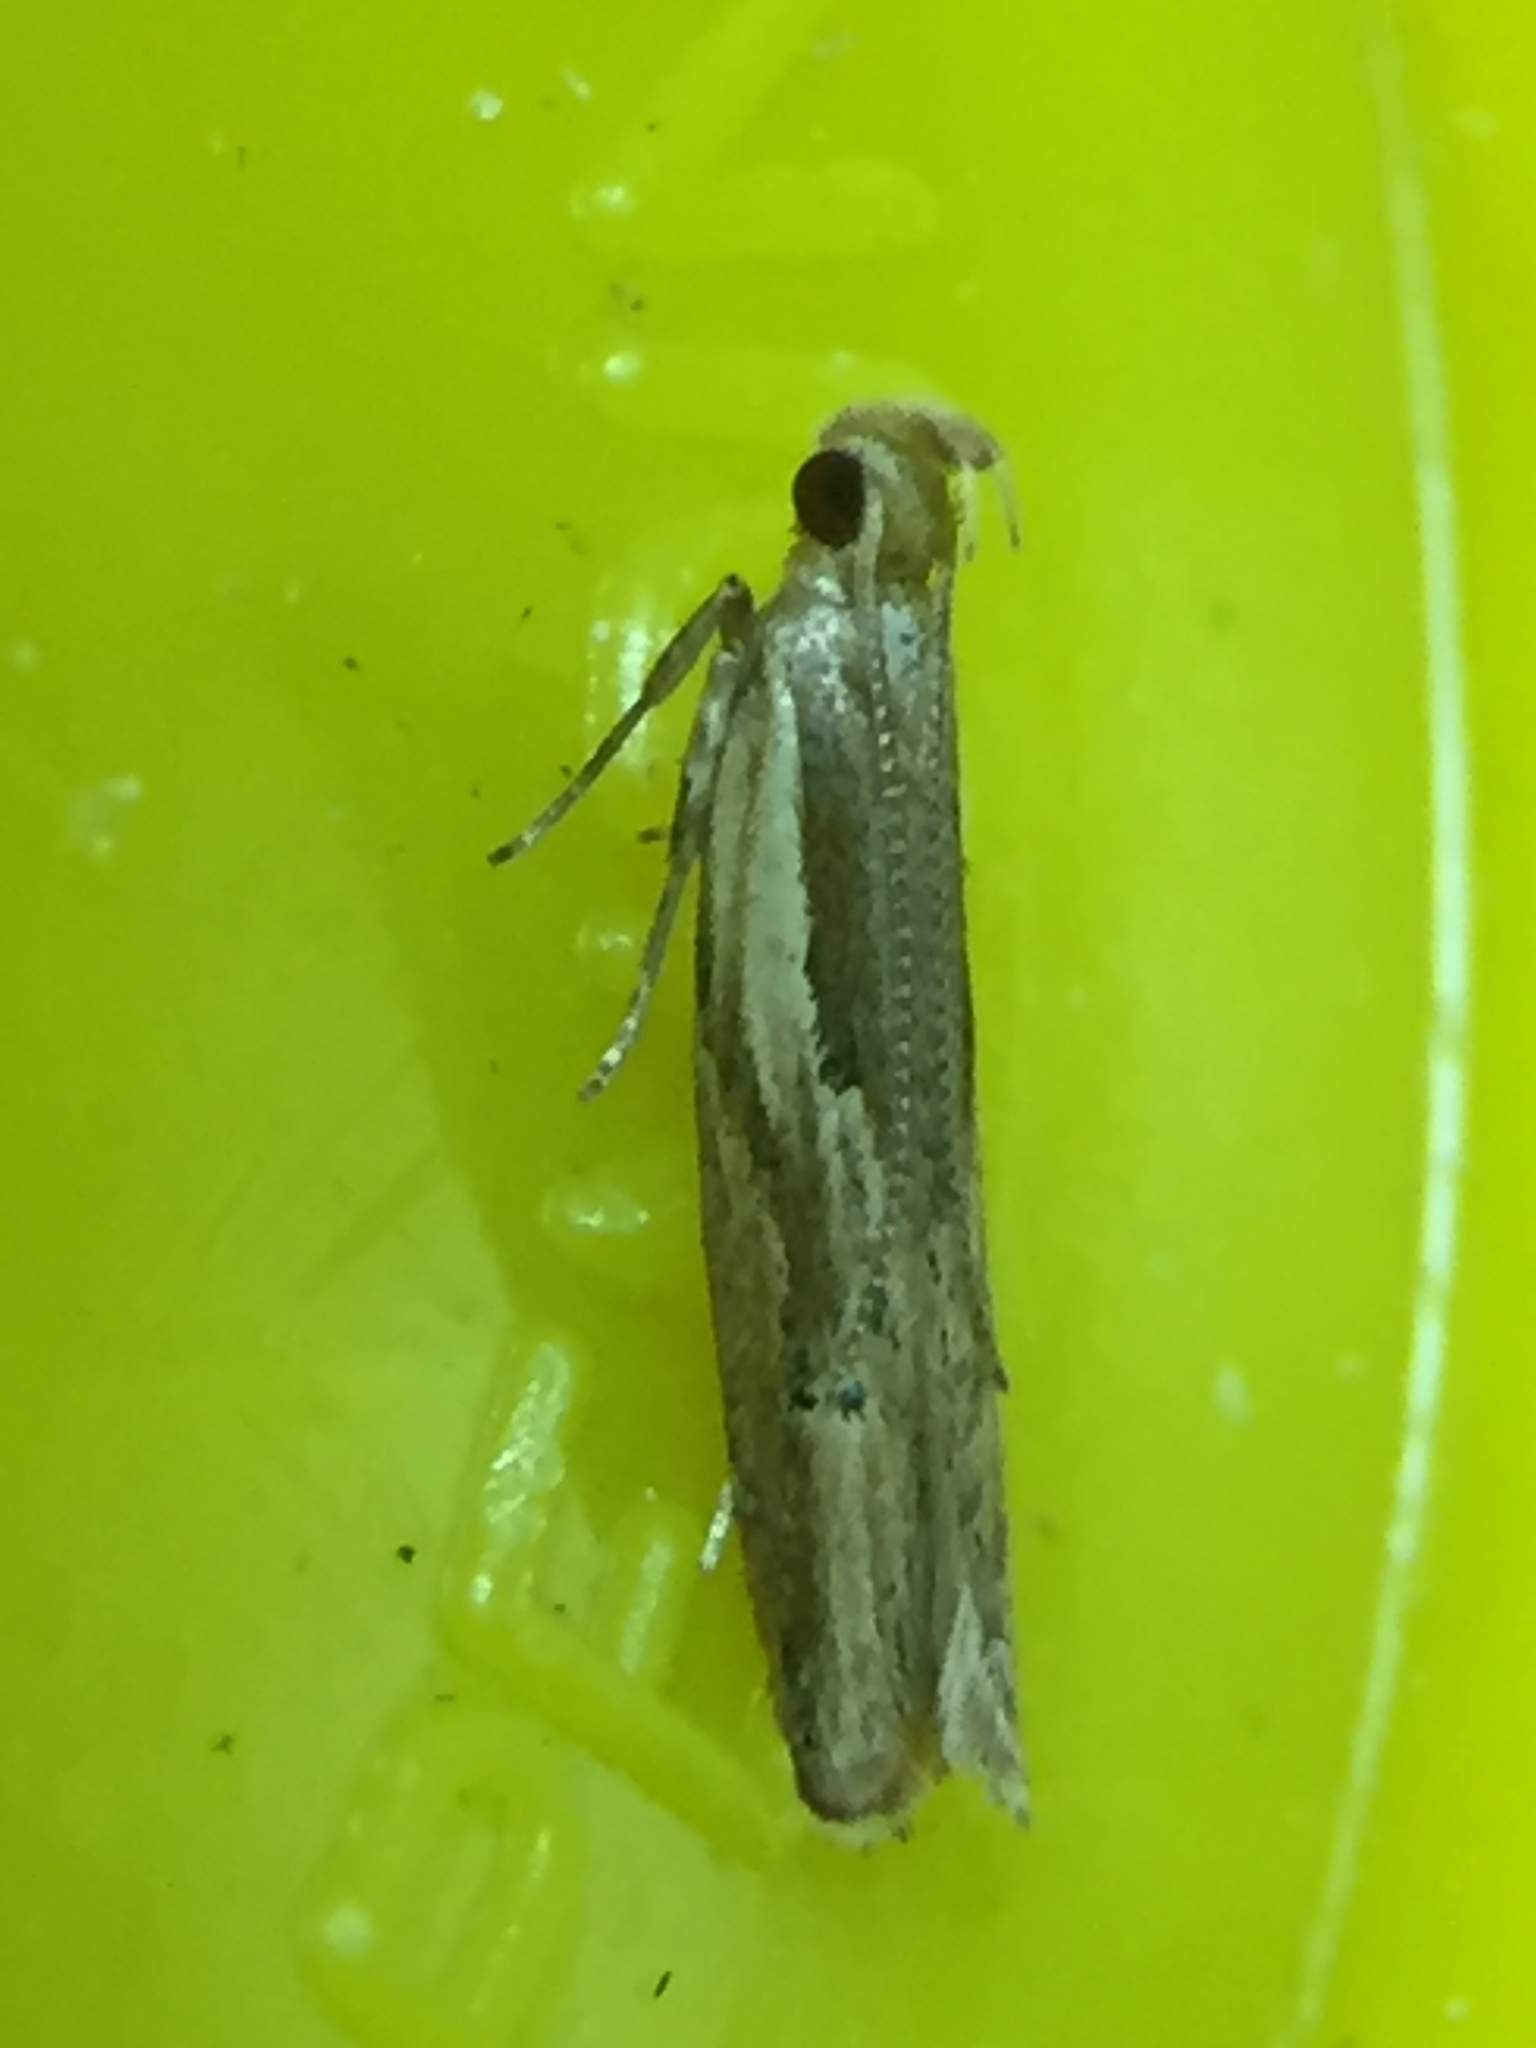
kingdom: Animalia
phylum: Arthropoda
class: Insecta
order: Lepidoptera
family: Depressariidae
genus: Eutorna
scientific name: Eutorna symmorpha
